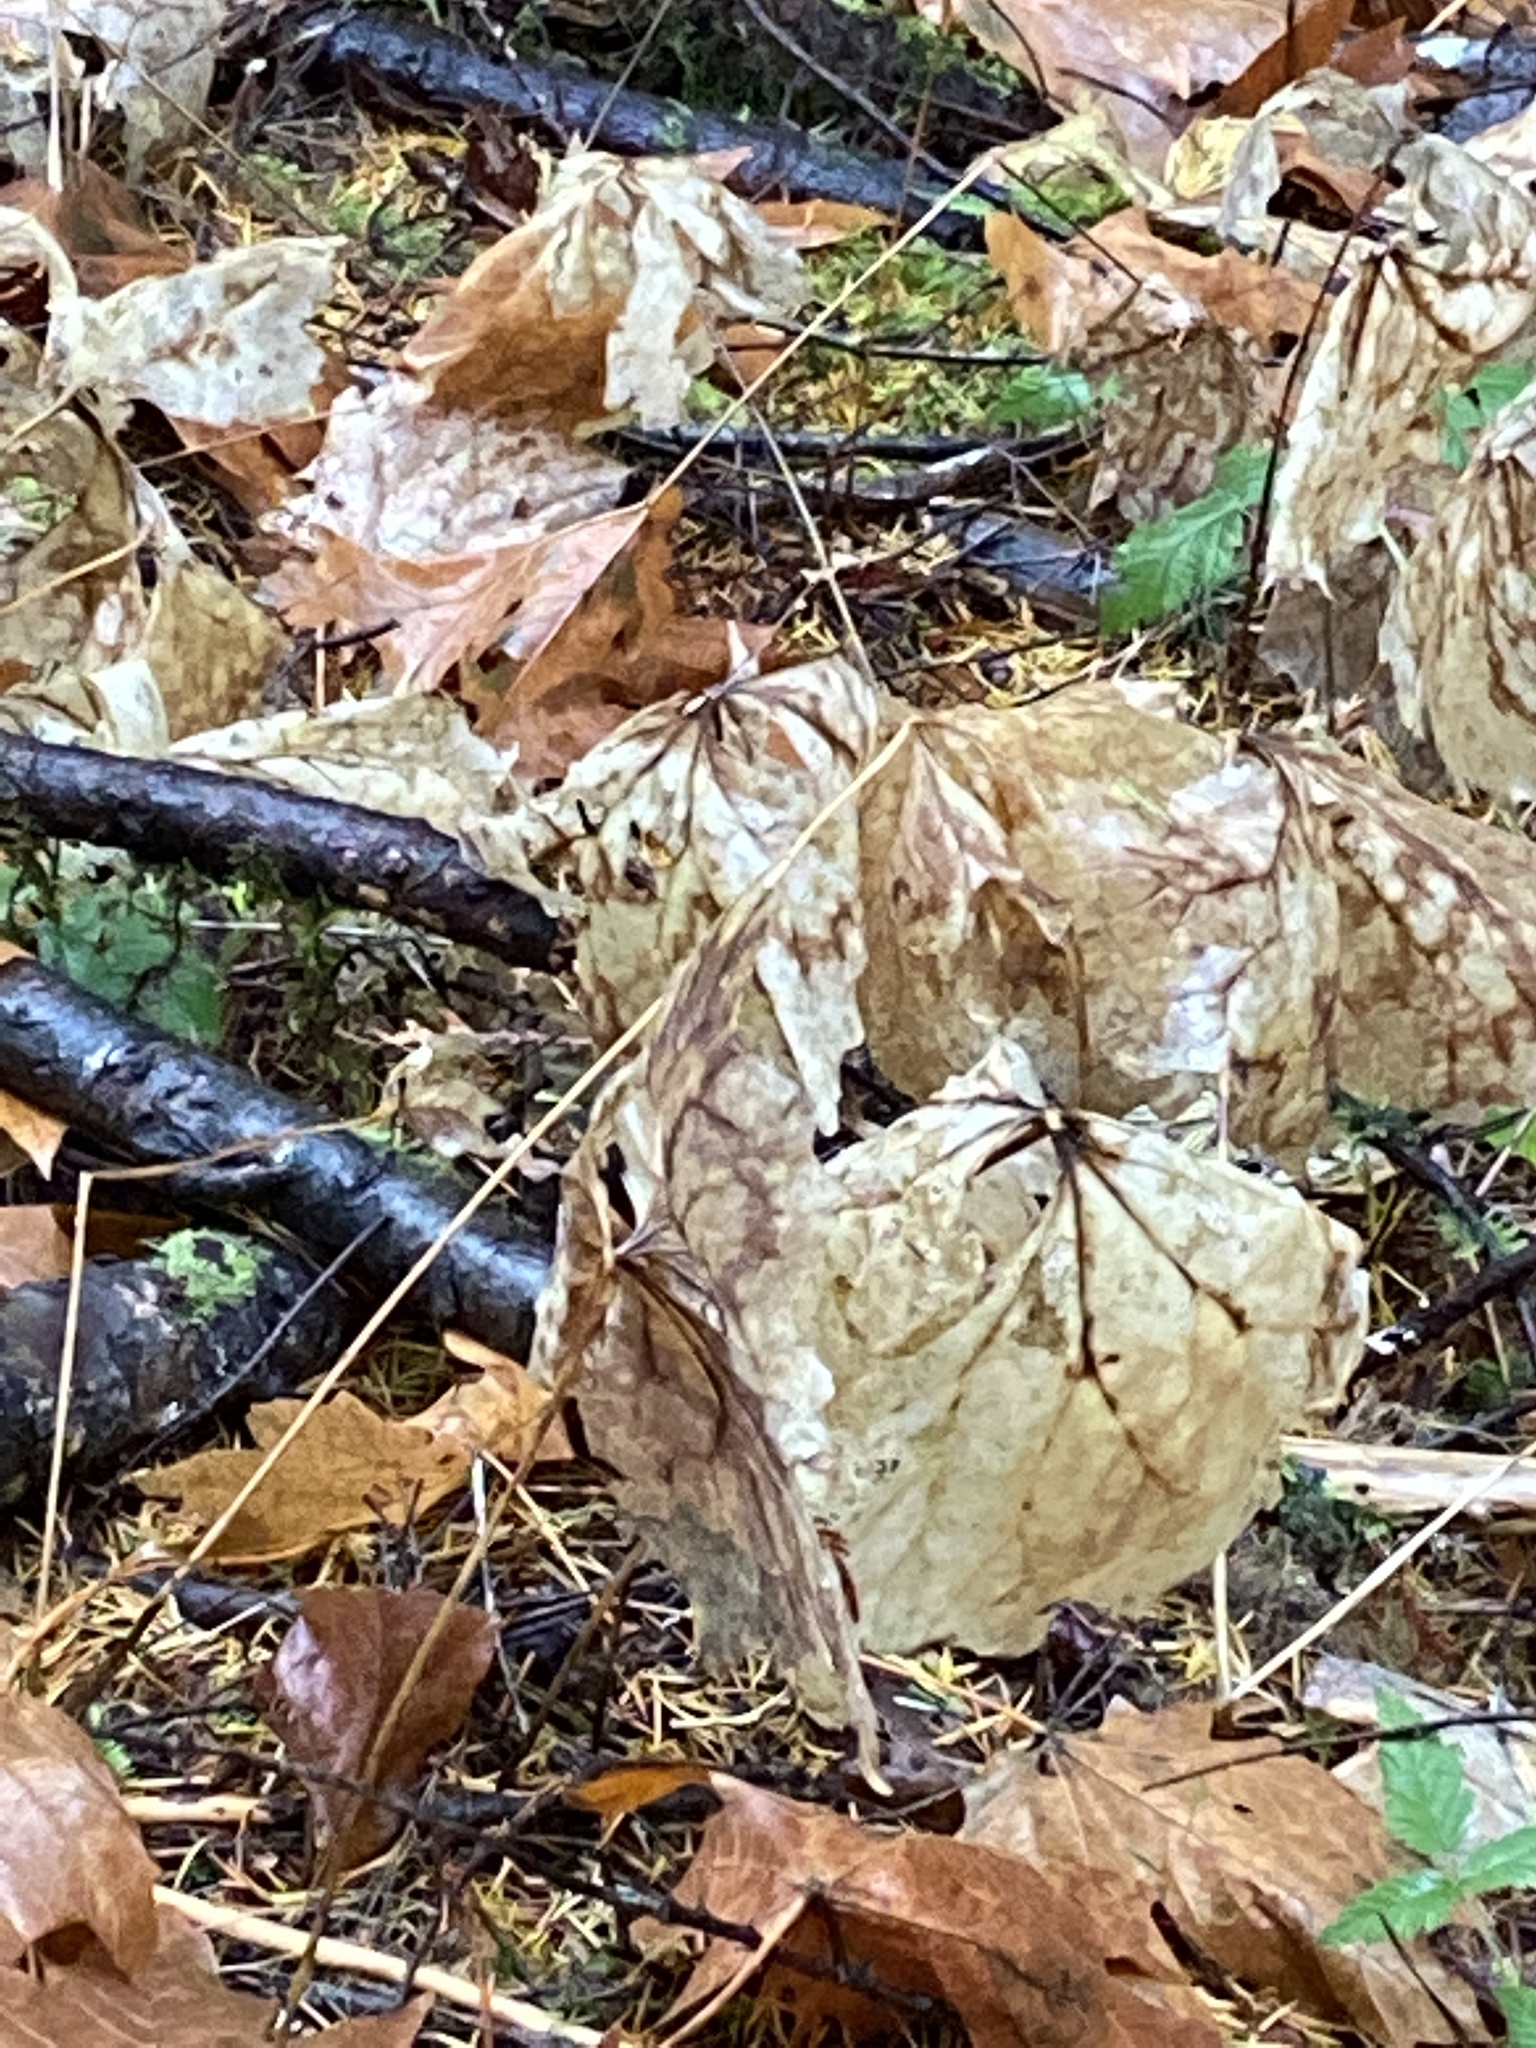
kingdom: Plantae
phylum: Tracheophyta
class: Magnoliopsida
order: Ranunculales
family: Berberidaceae
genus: Achlys
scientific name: Achlys triphylla
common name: Vanilla-leaf
